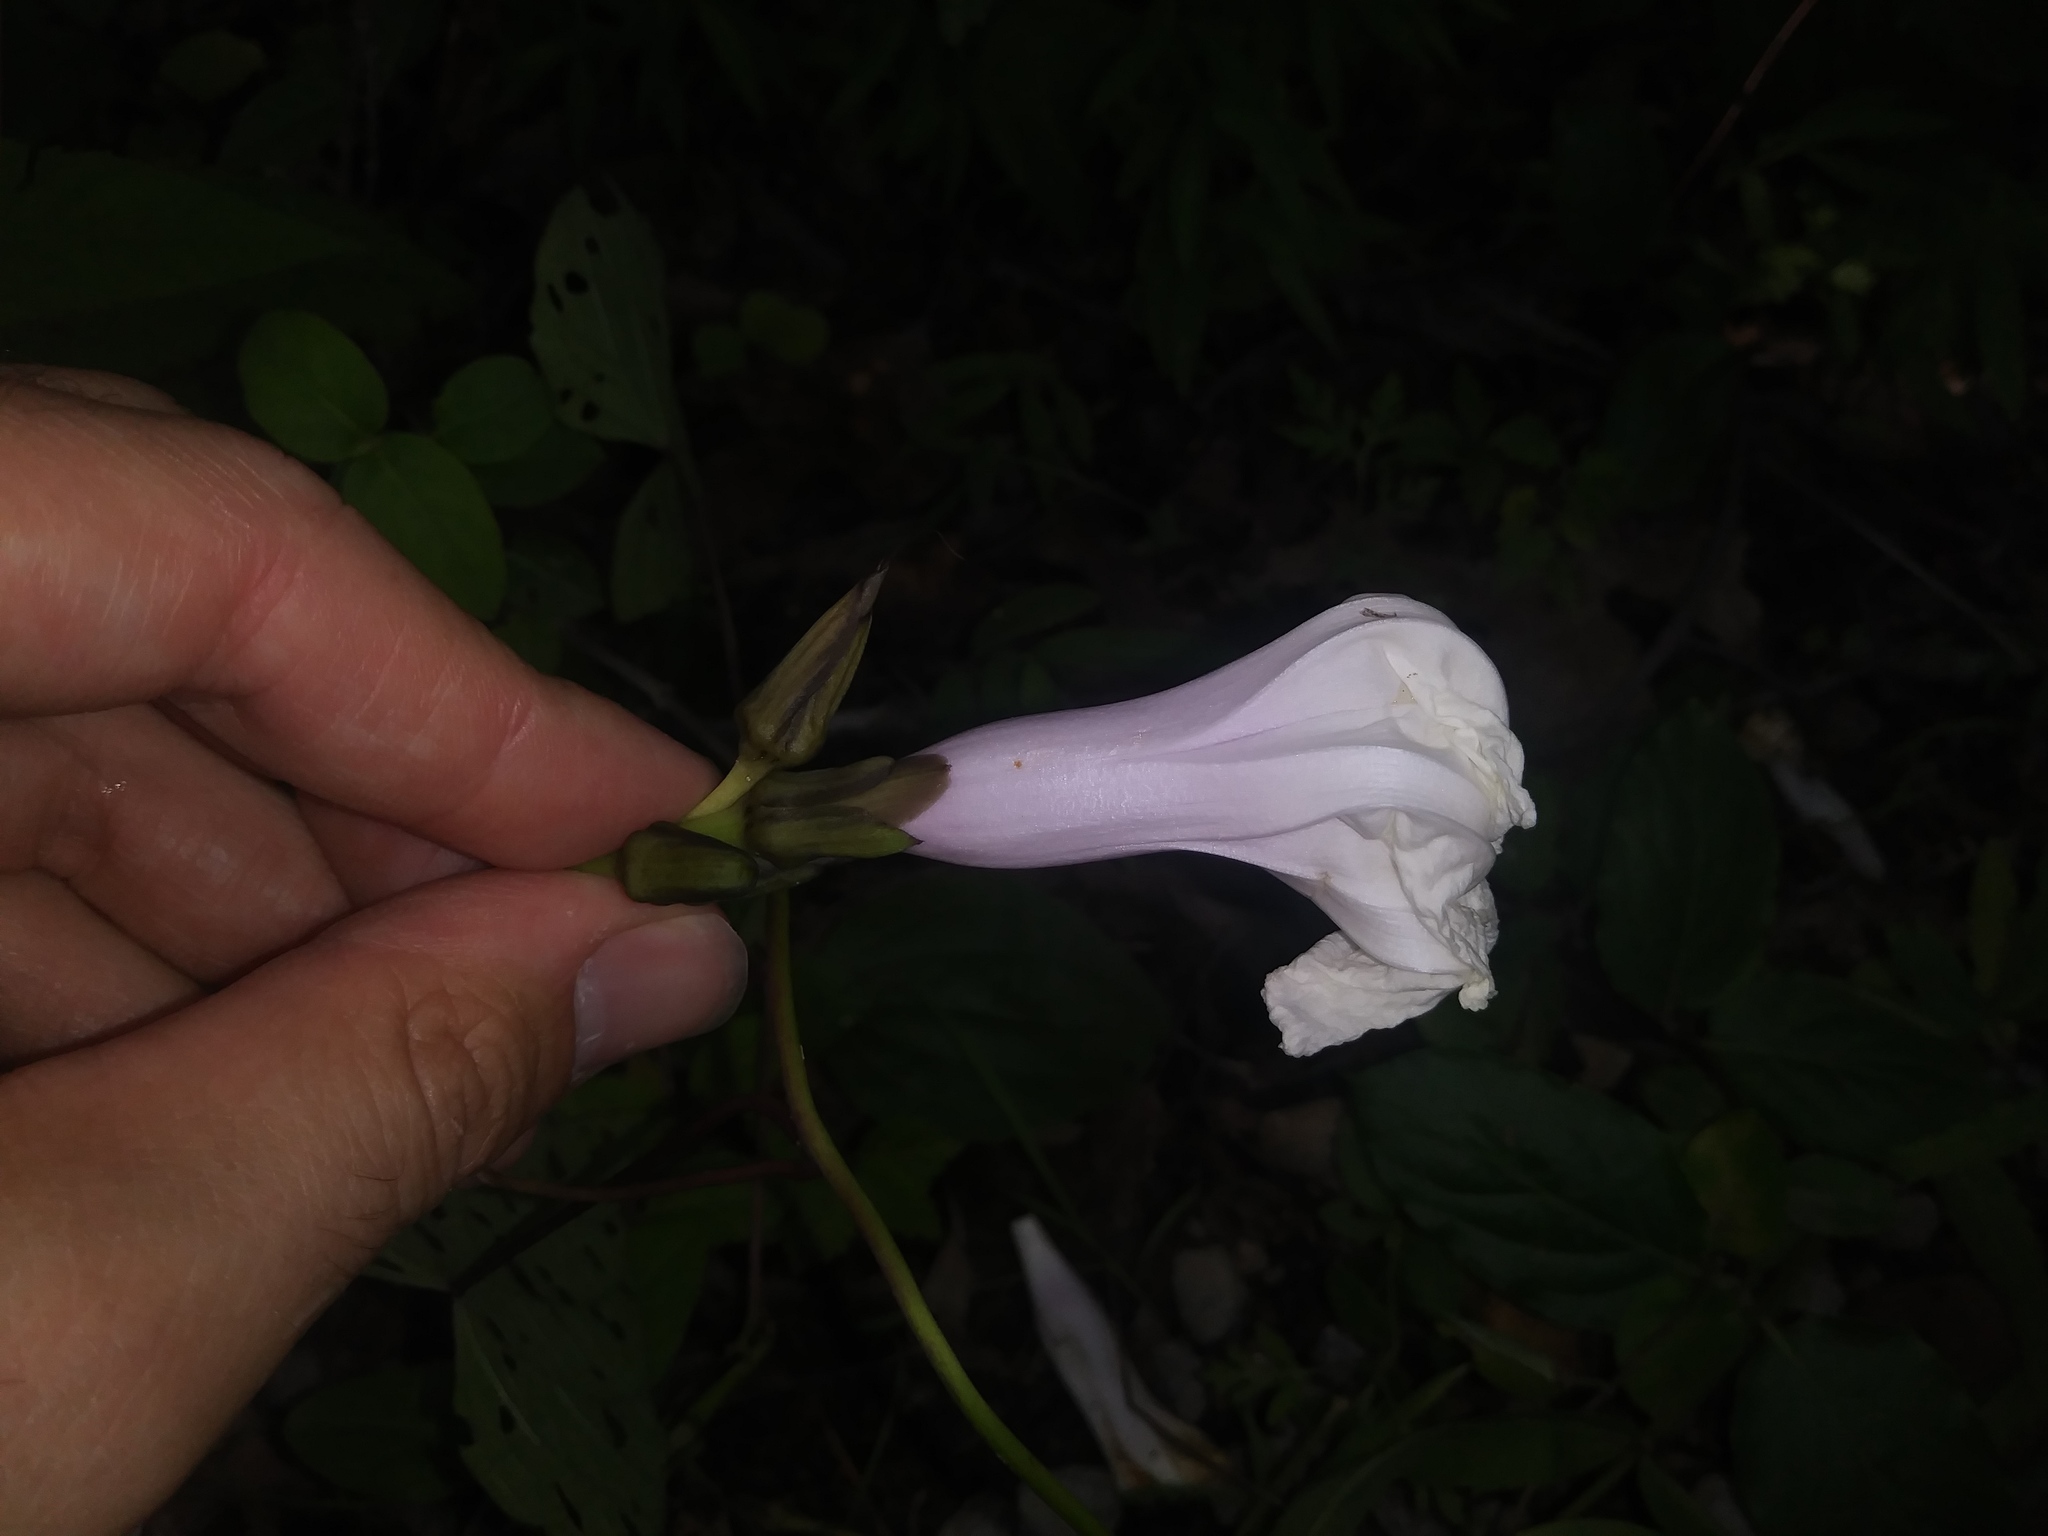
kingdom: Plantae
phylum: Tracheophyta
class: Magnoliopsida
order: Solanales
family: Convolvulaceae
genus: Ipomoea
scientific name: Ipomoea pandurata
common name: Man-of-the-earth
